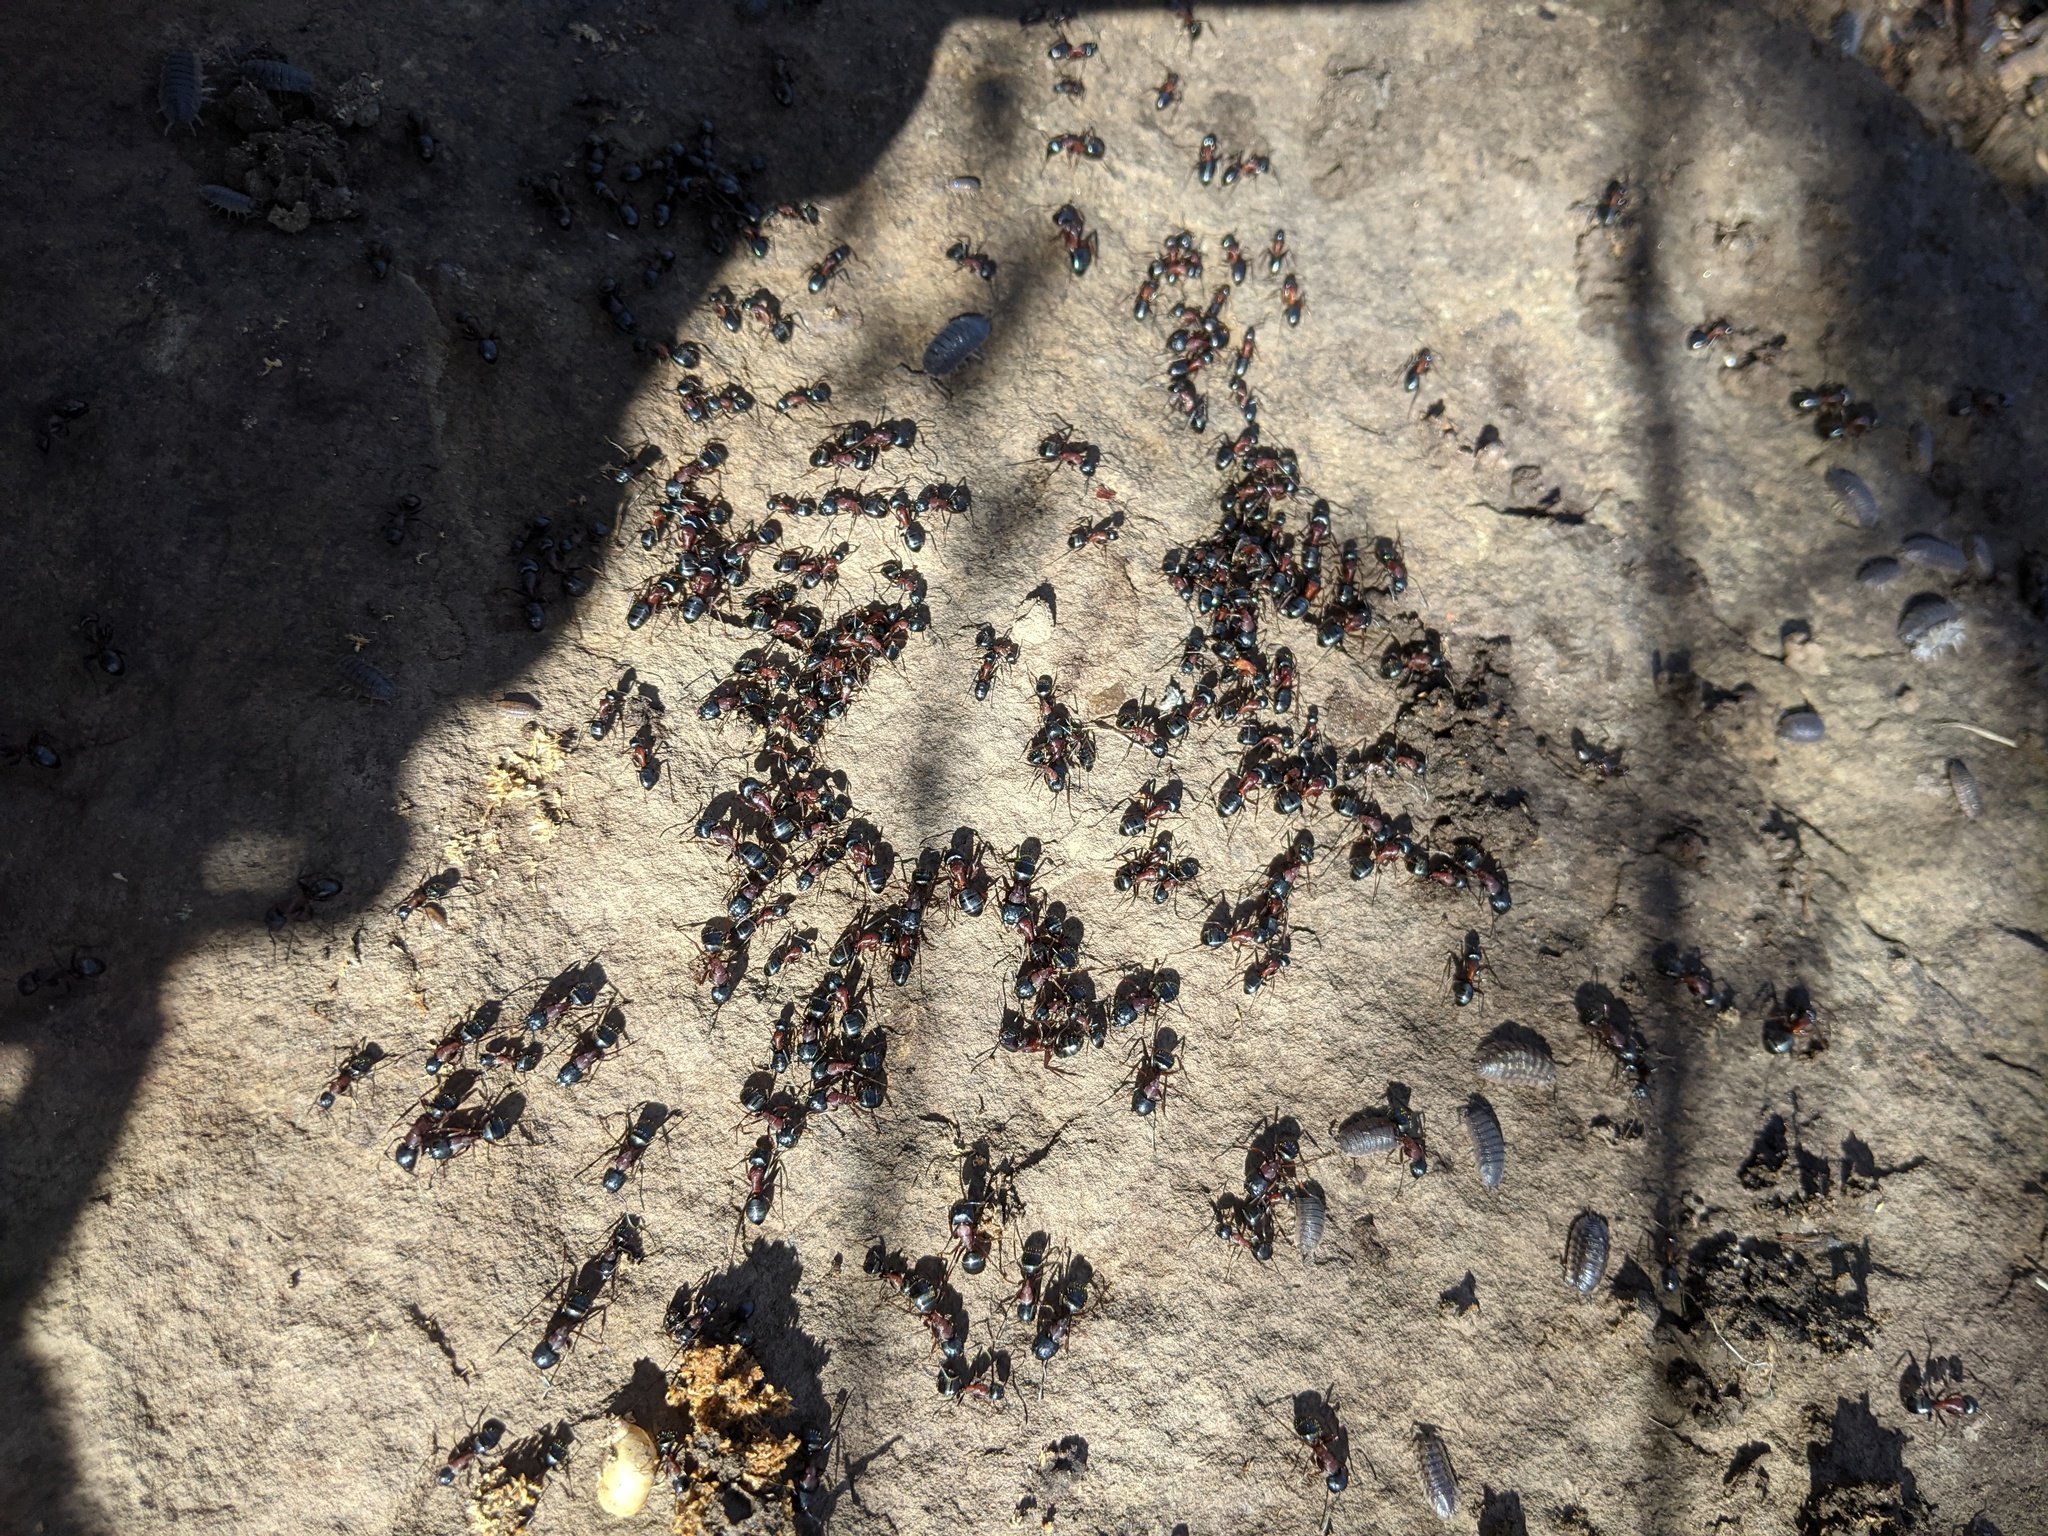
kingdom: Animalia
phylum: Arthropoda
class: Insecta
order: Hymenoptera
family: Formicidae
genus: Camponotus
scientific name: Camponotus novaeboracensis
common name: New york carpenter ant
